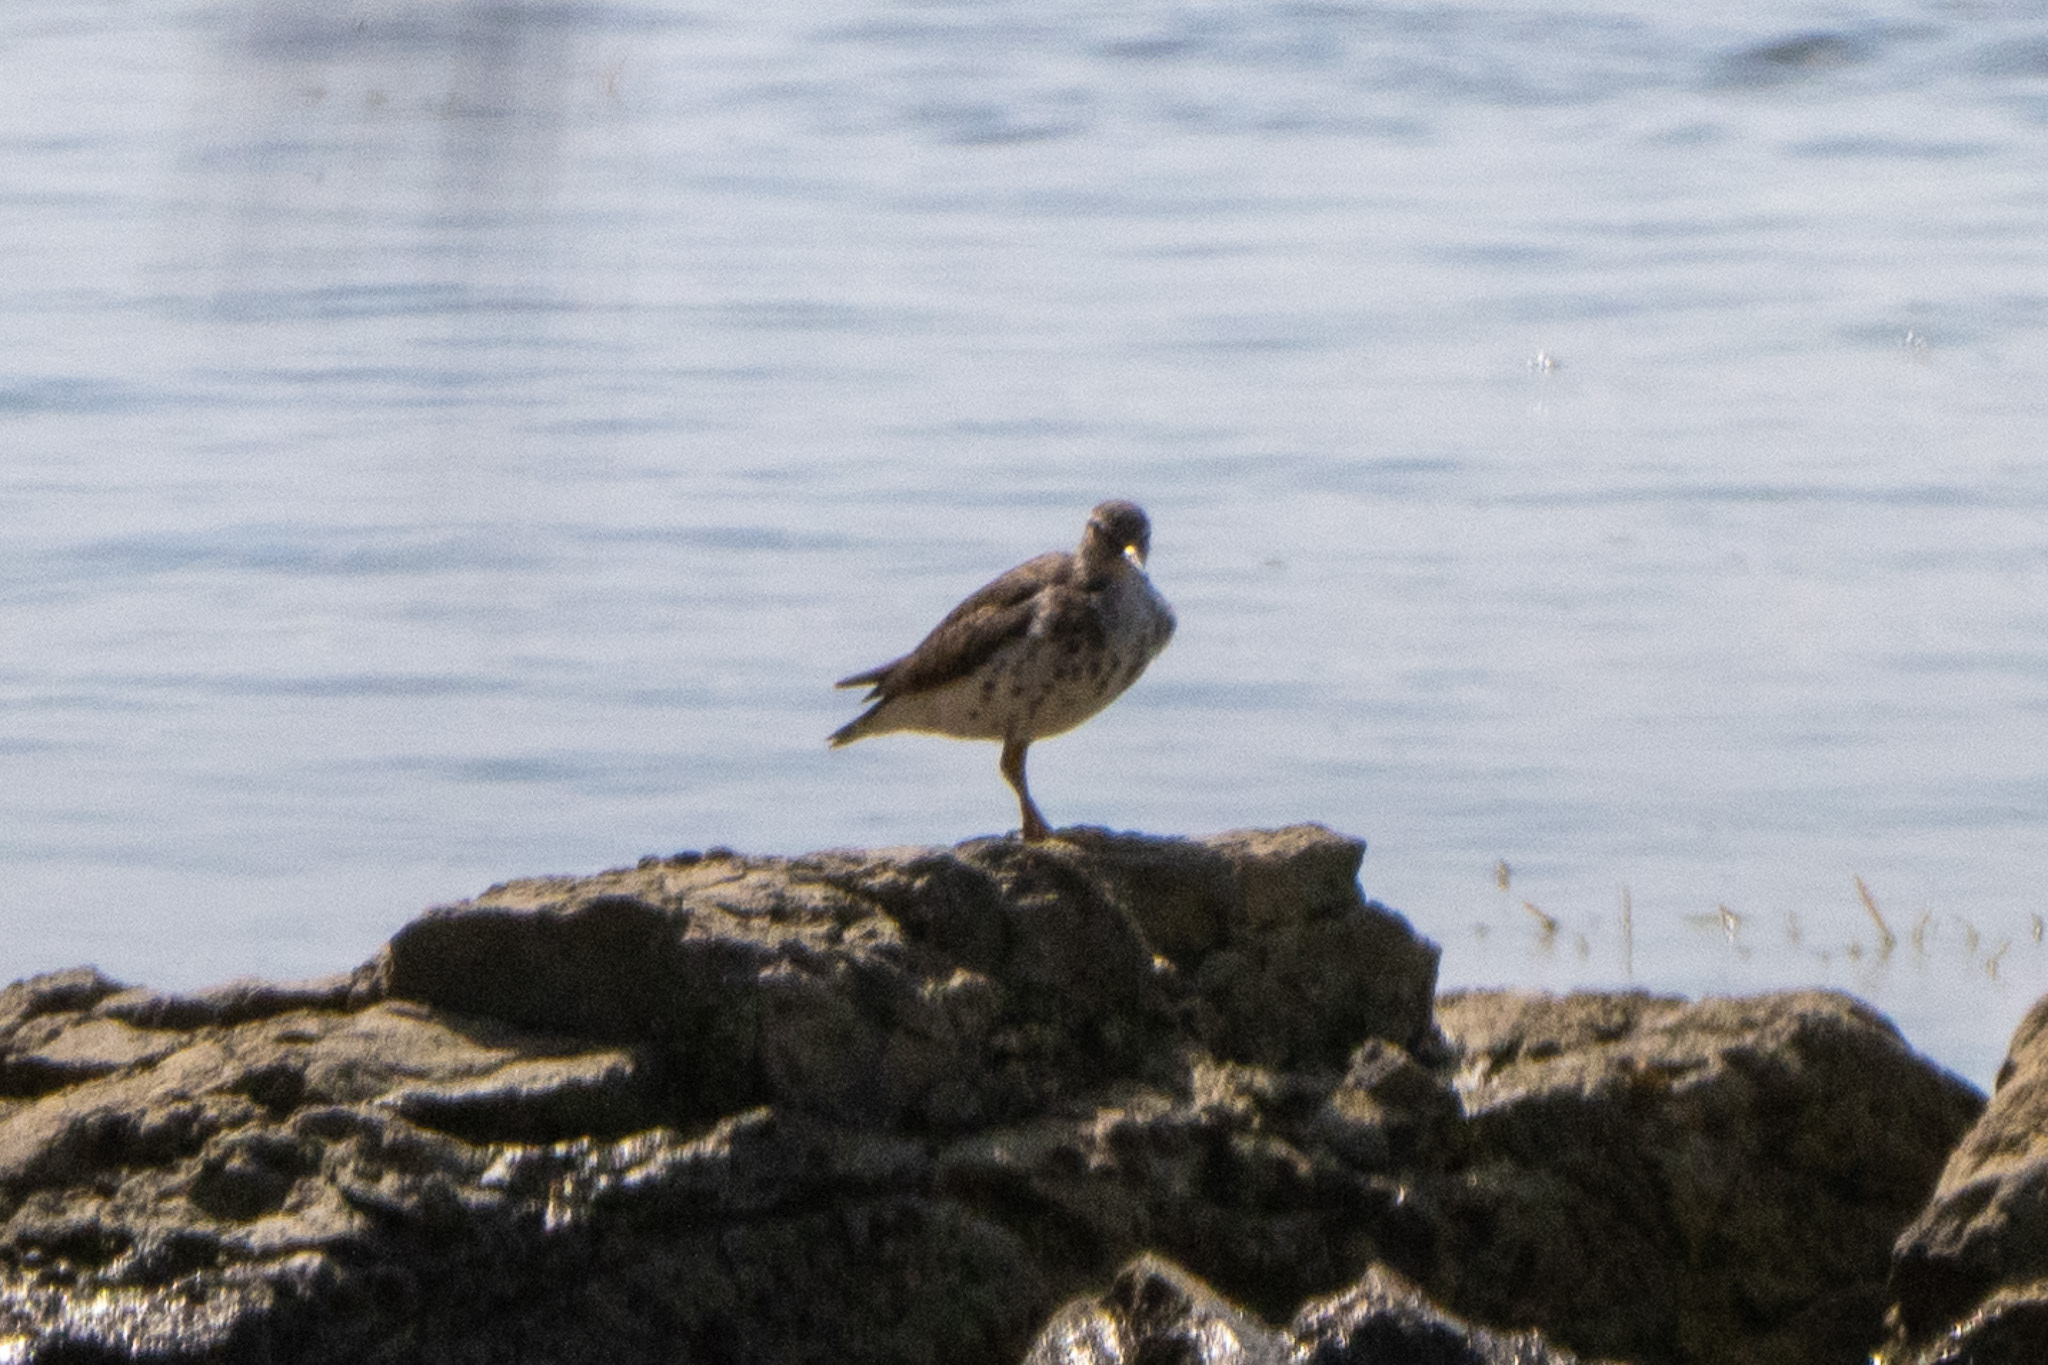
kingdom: Animalia
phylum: Chordata
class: Aves
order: Charadriiformes
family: Scolopacidae
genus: Actitis
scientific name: Actitis macularius
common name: Spotted sandpiper
